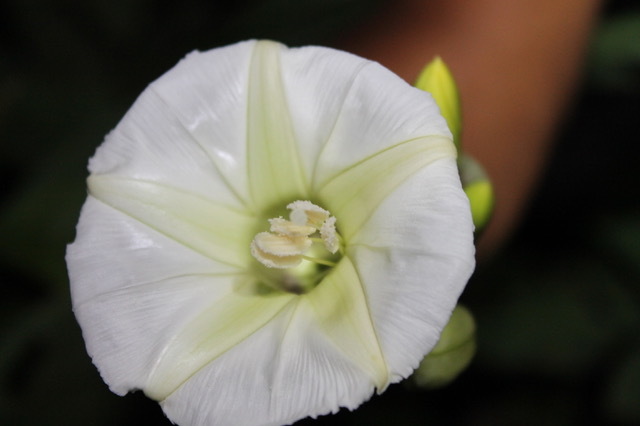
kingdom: Plantae
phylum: Tracheophyta
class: Magnoliopsida
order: Solanales
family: Convolvulaceae
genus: Ipomoea
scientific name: Ipomoea santillanii
